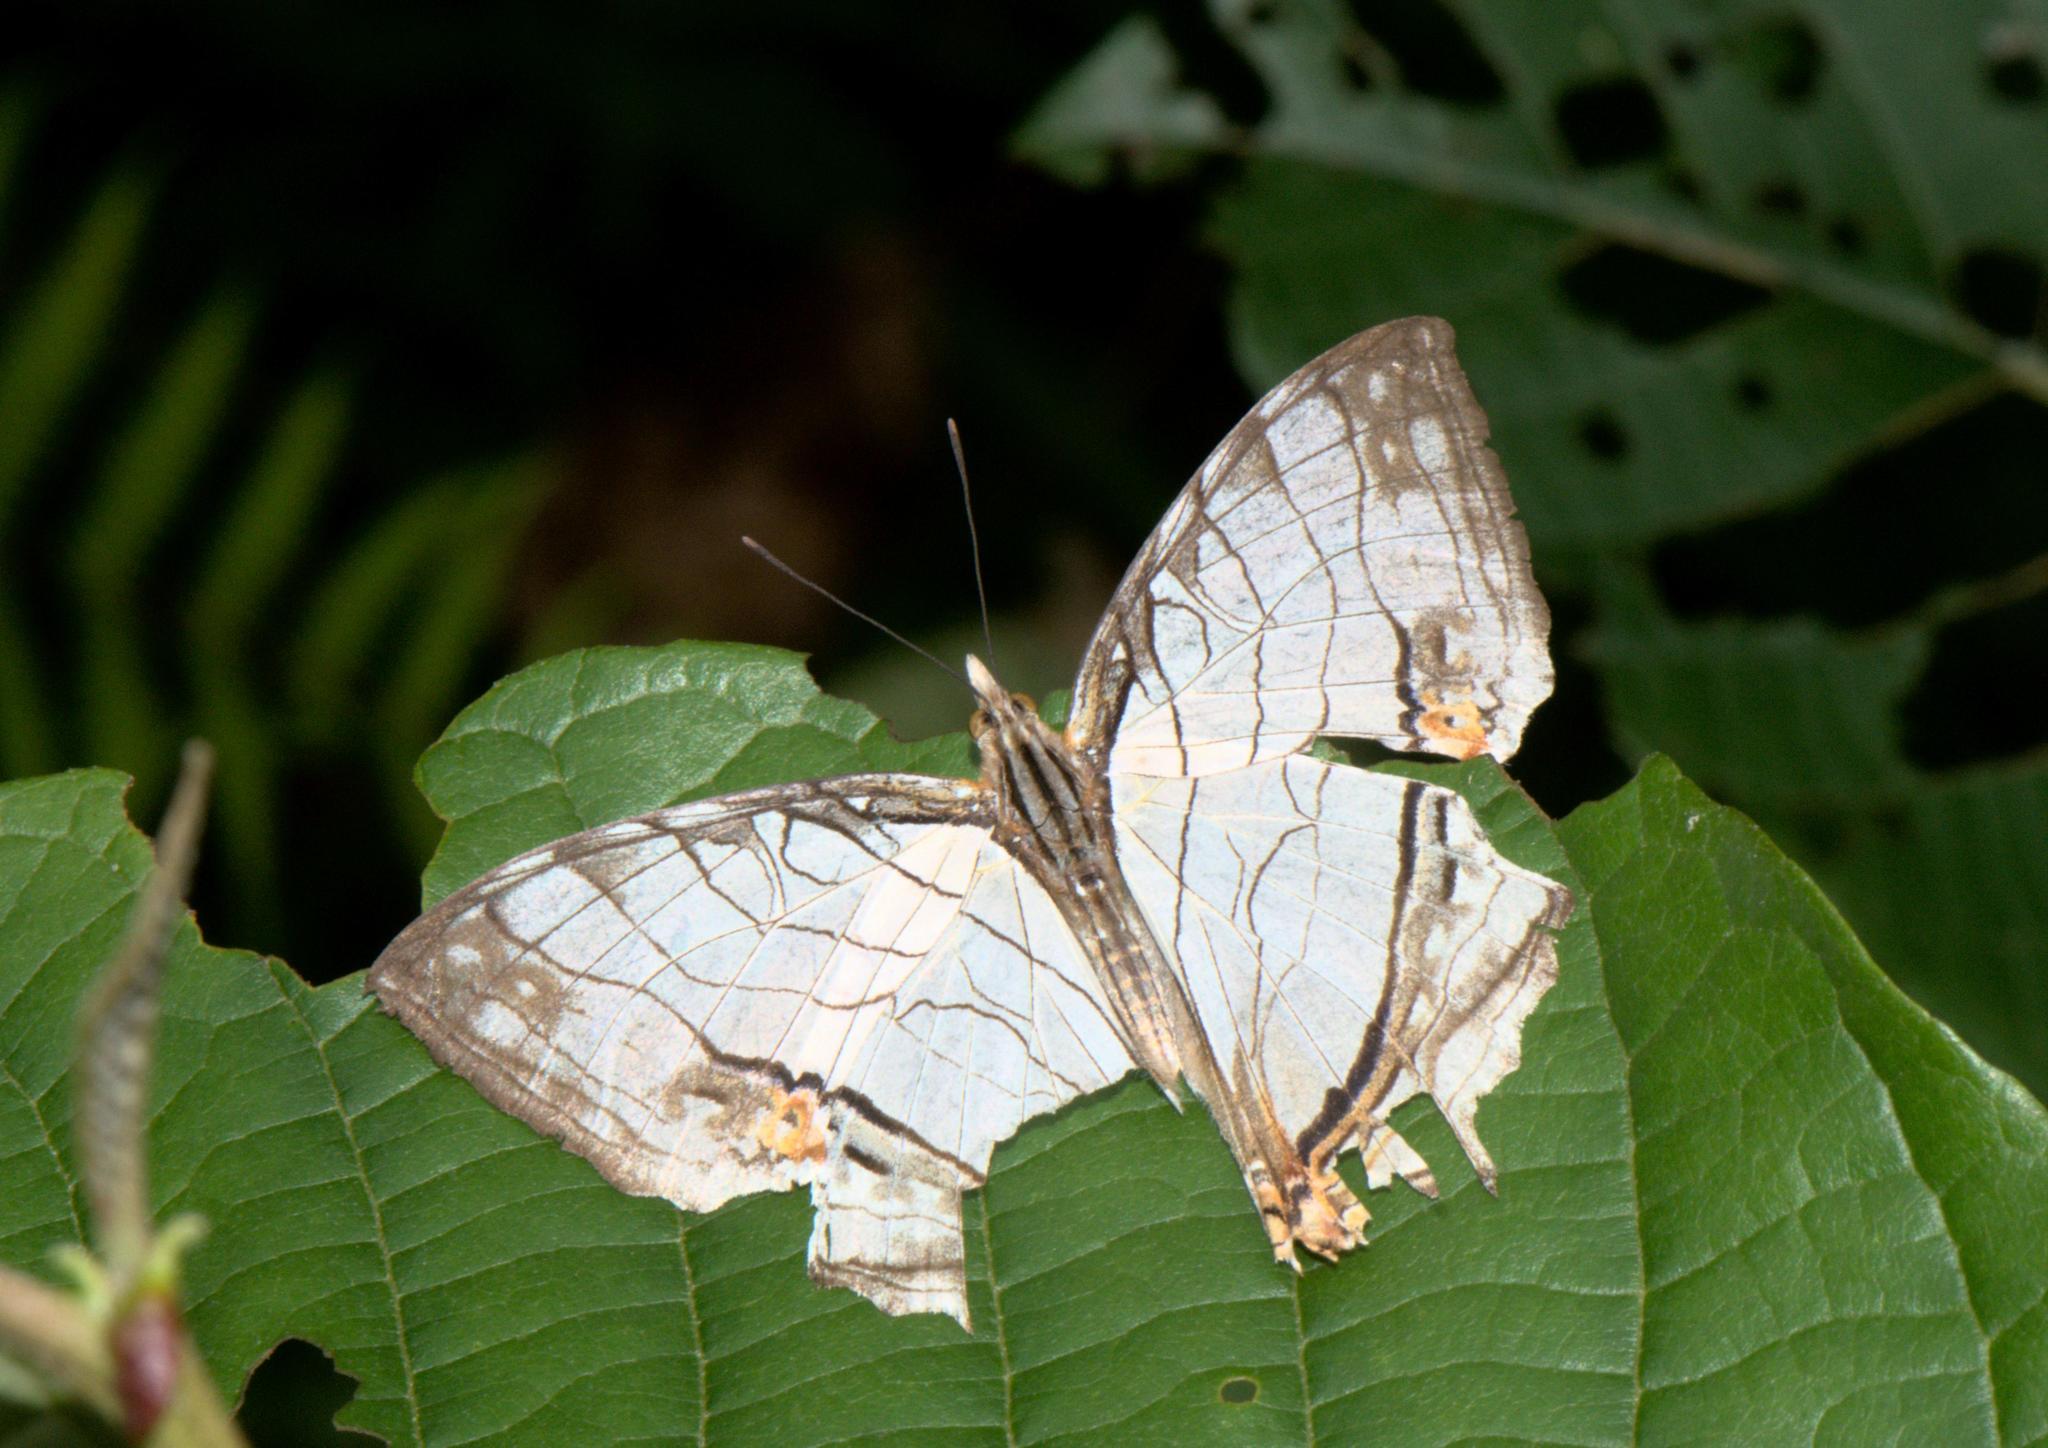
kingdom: Animalia
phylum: Arthropoda
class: Insecta
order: Lepidoptera
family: Nymphalidae
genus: Cyrestis
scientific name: Cyrestis thyodamas
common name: Common mapwing
